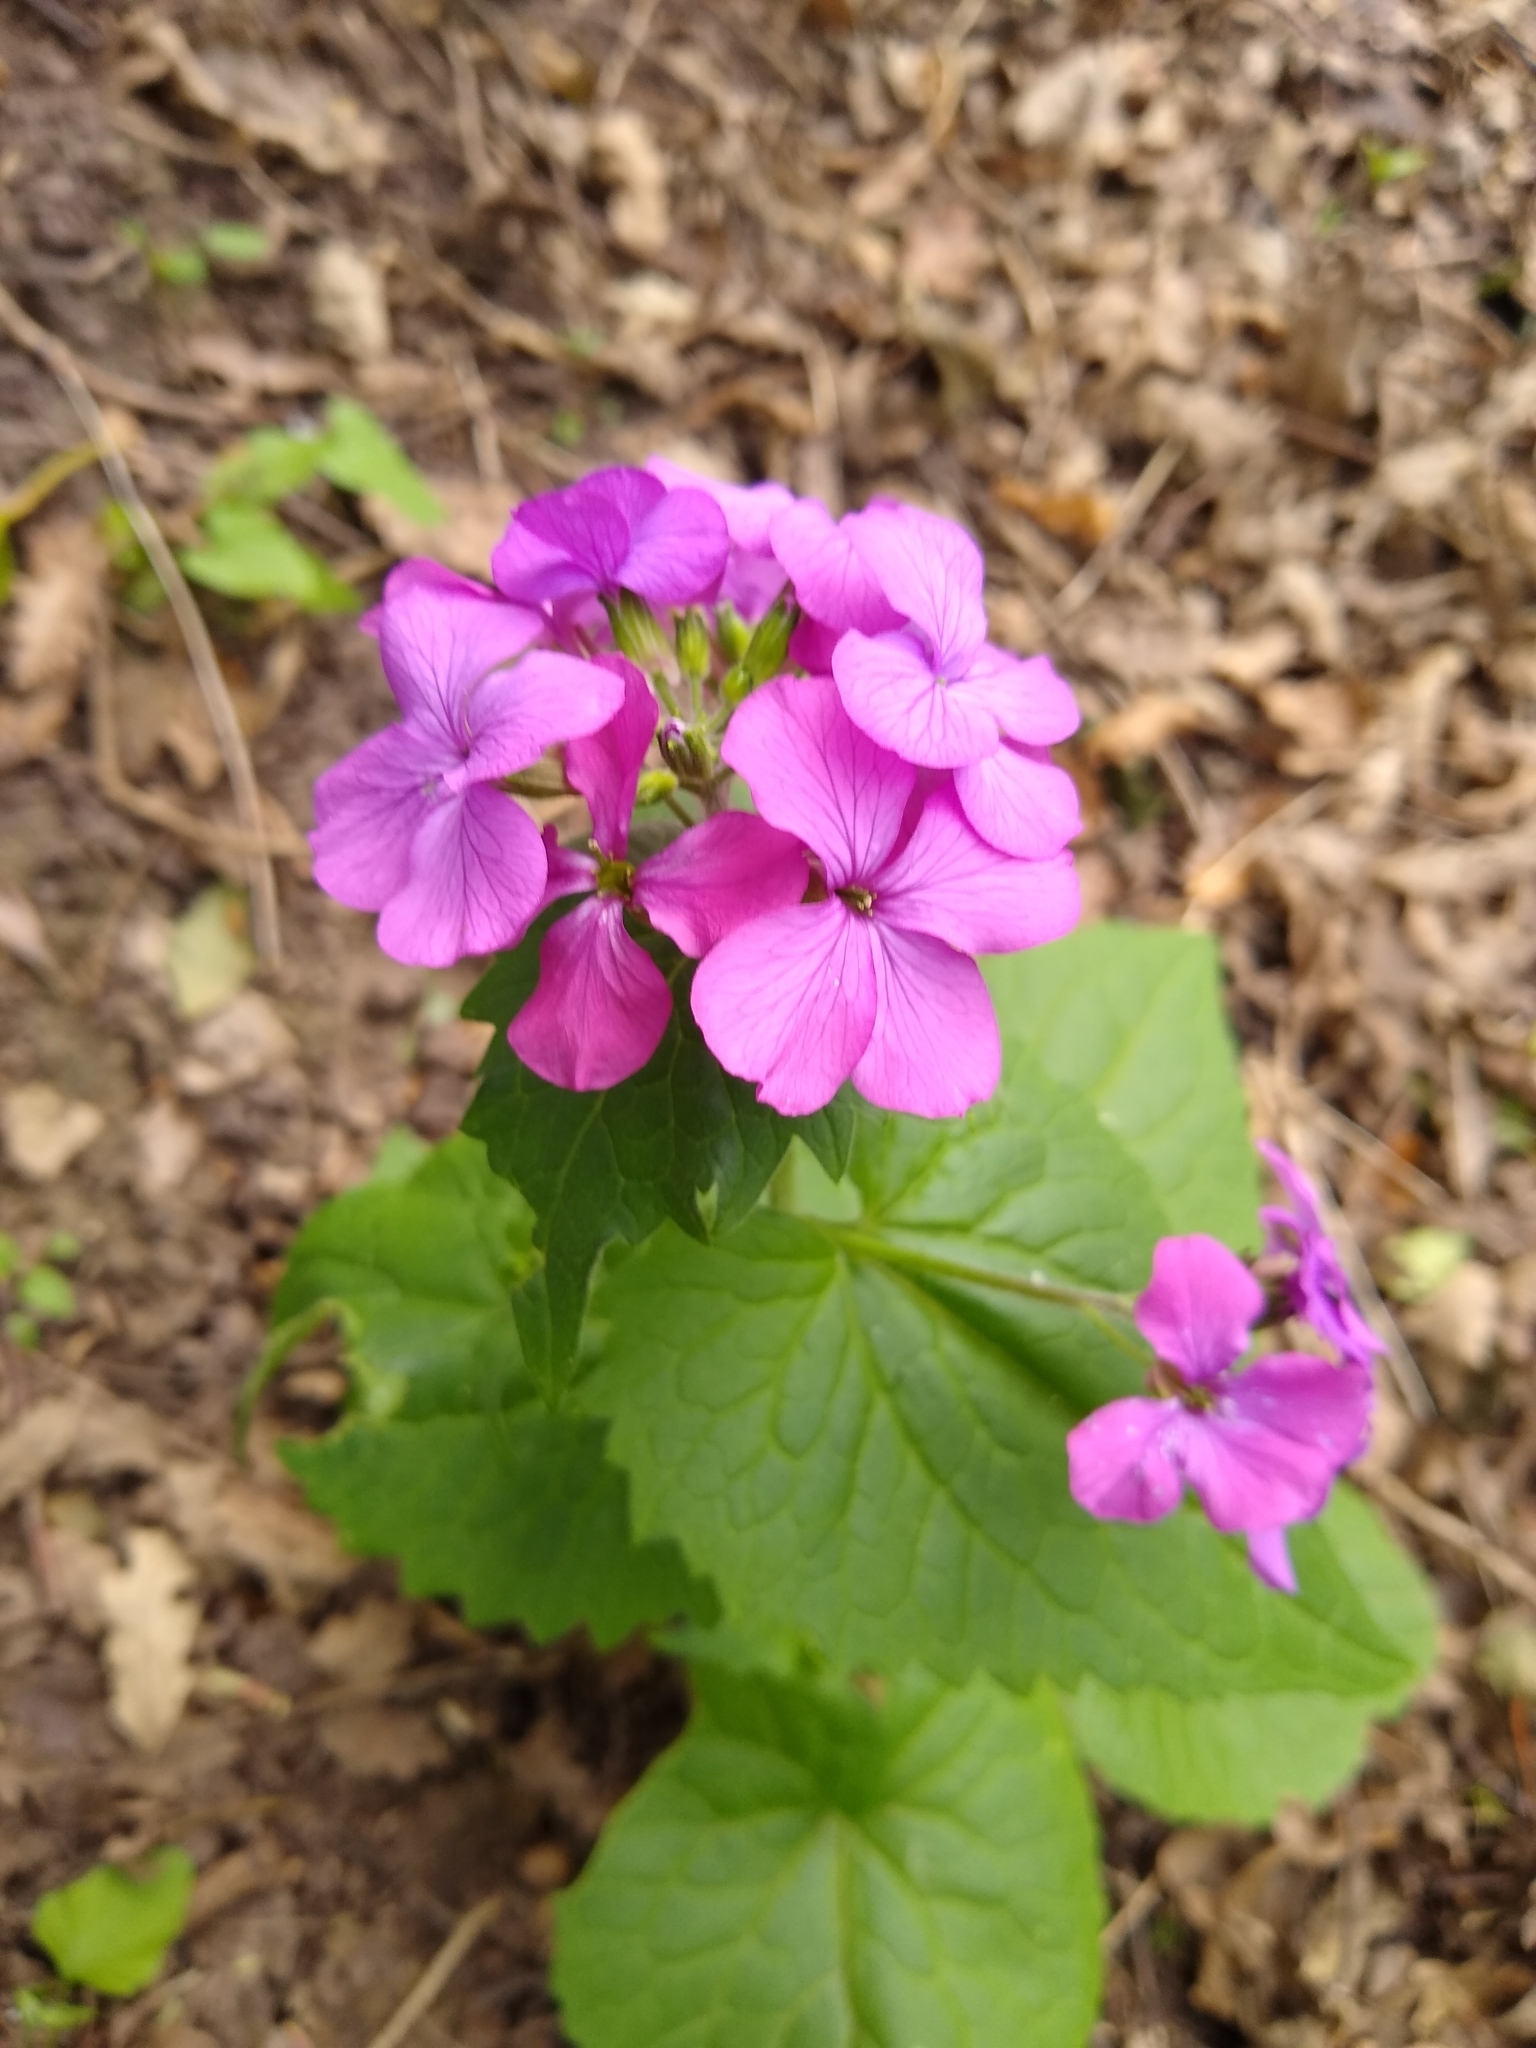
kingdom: Plantae
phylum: Tracheophyta
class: Magnoliopsida
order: Brassicales
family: Brassicaceae
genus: Lunaria
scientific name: Lunaria annua
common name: Honesty
